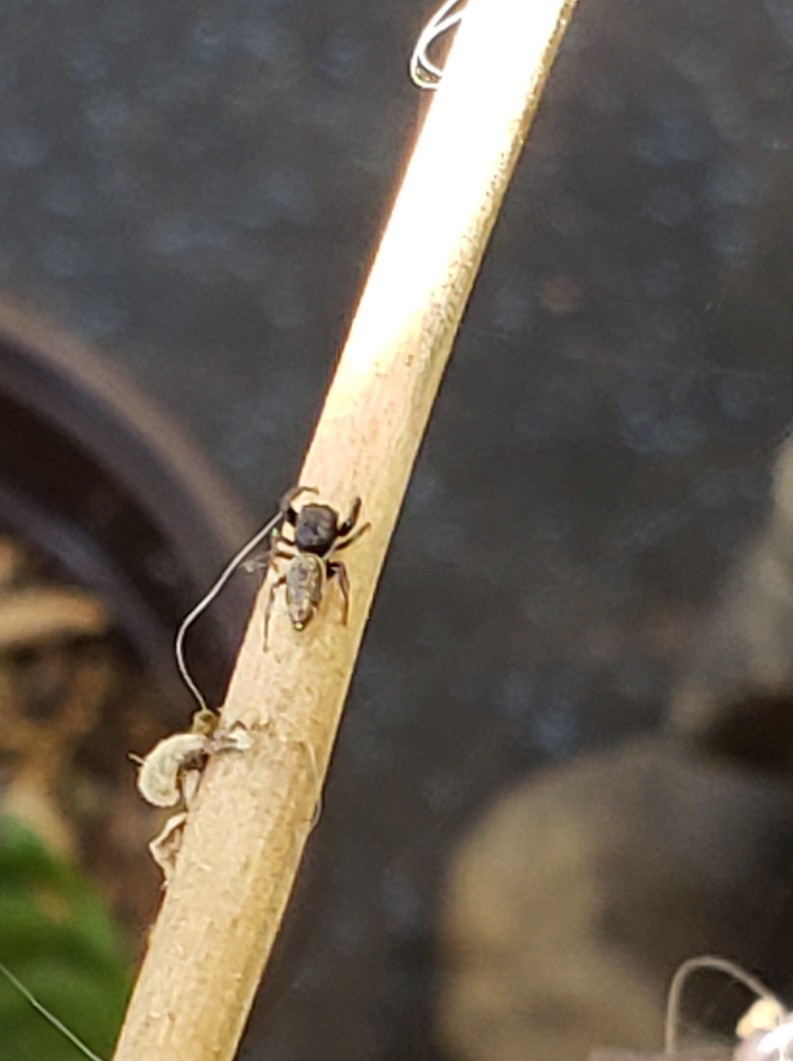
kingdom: Animalia
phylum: Arthropoda
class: Arachnida
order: Araneae
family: Salticidae
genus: Sassacus
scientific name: Sassacus vitis
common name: Jumping spiders
